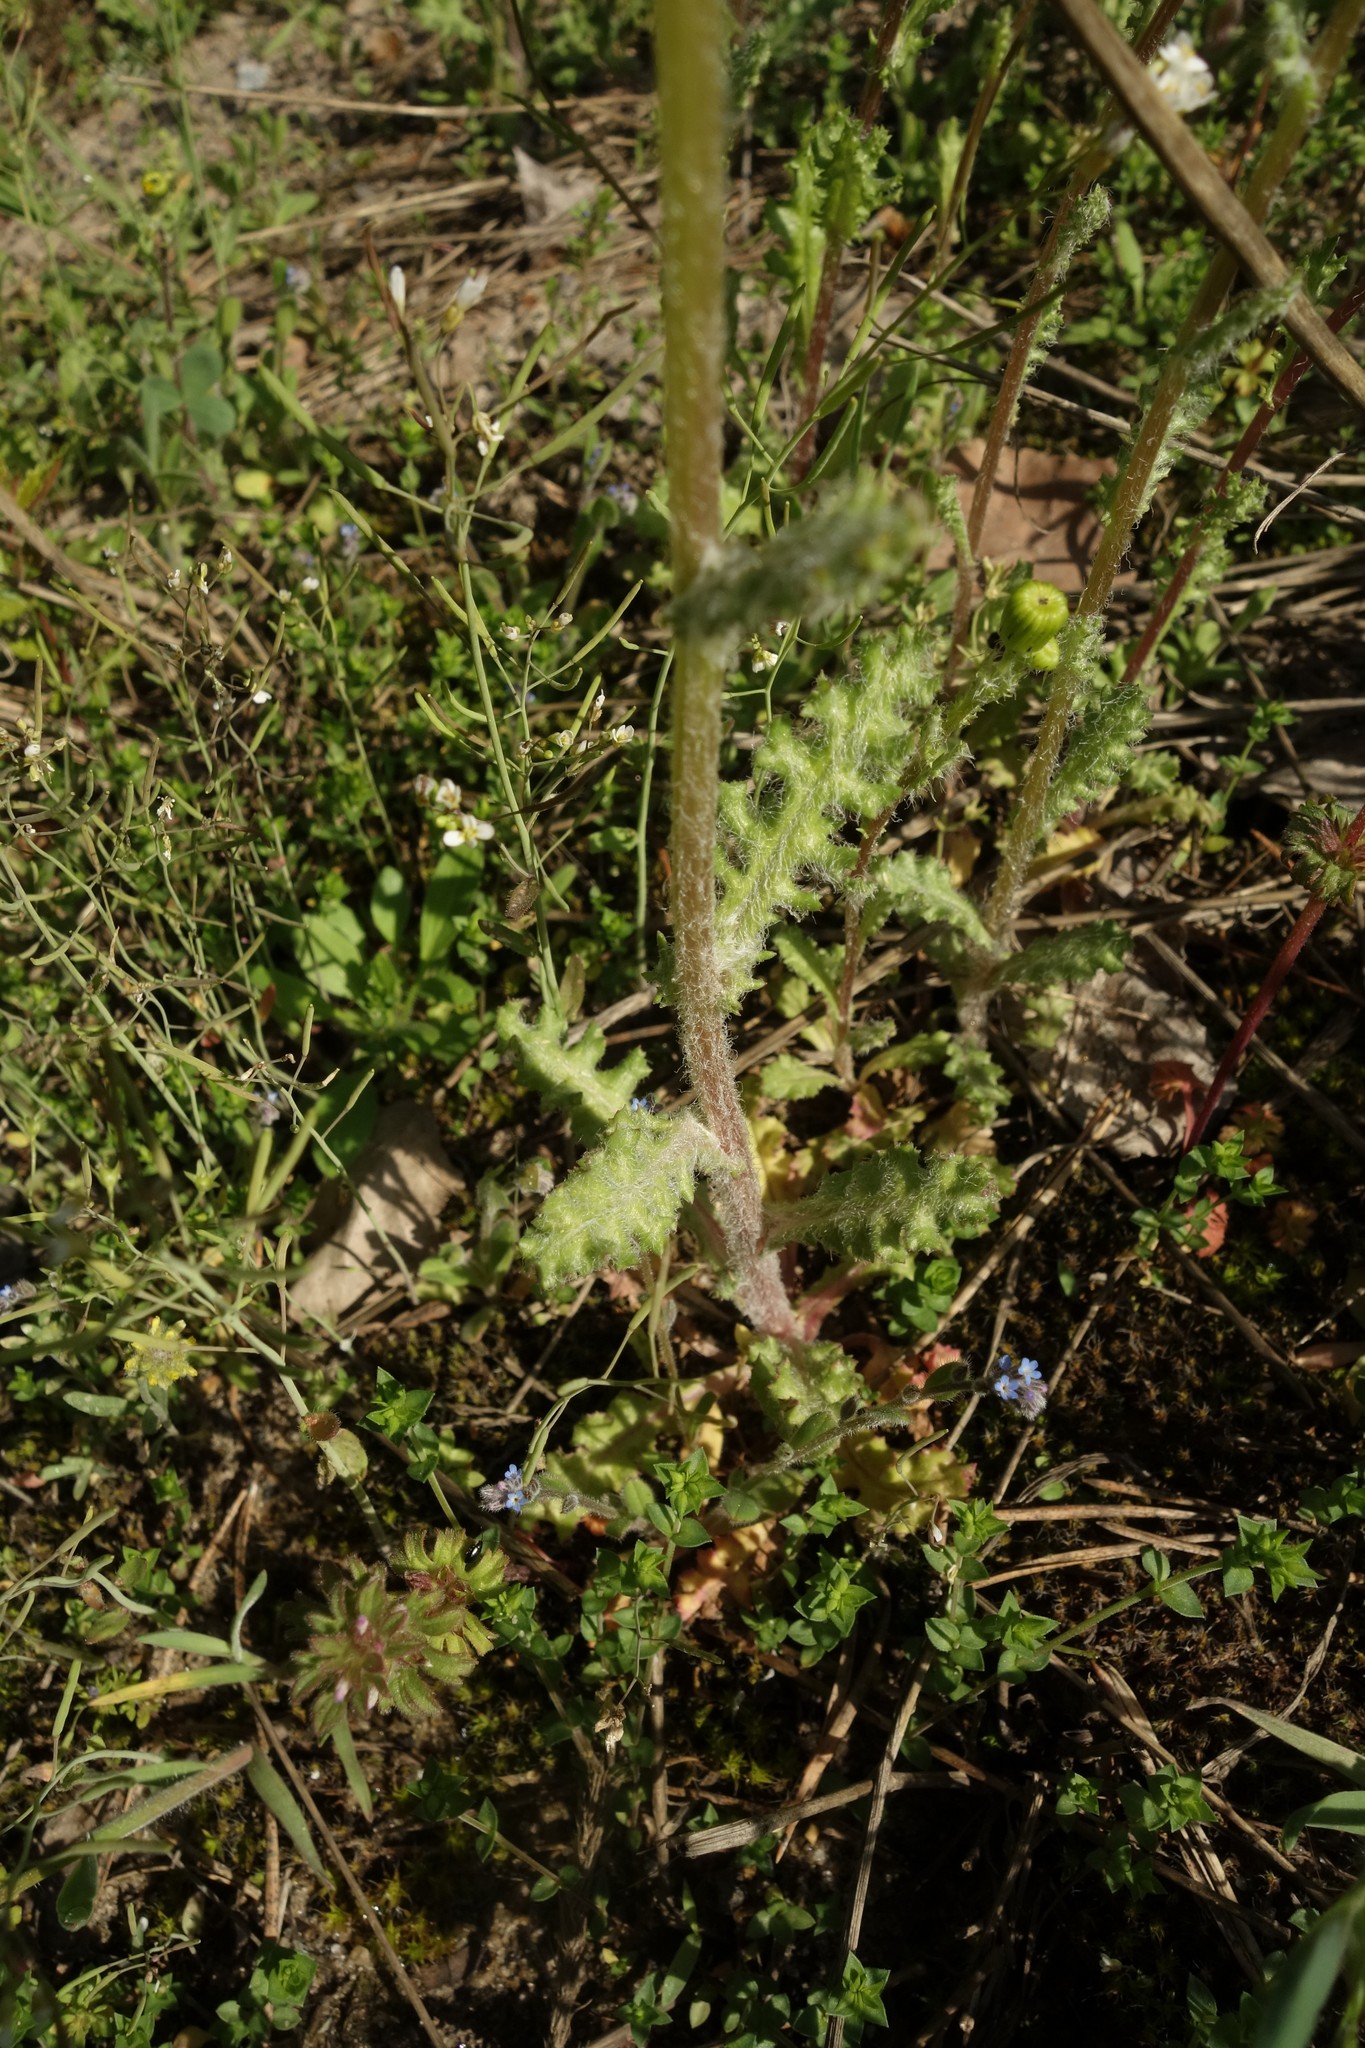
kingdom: Plantae
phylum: Tracheophyta
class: Magnoliopsida
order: Asterales
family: Asteraceae
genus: Senecio
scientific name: Senecio vernalis
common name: Eastern groundsel
